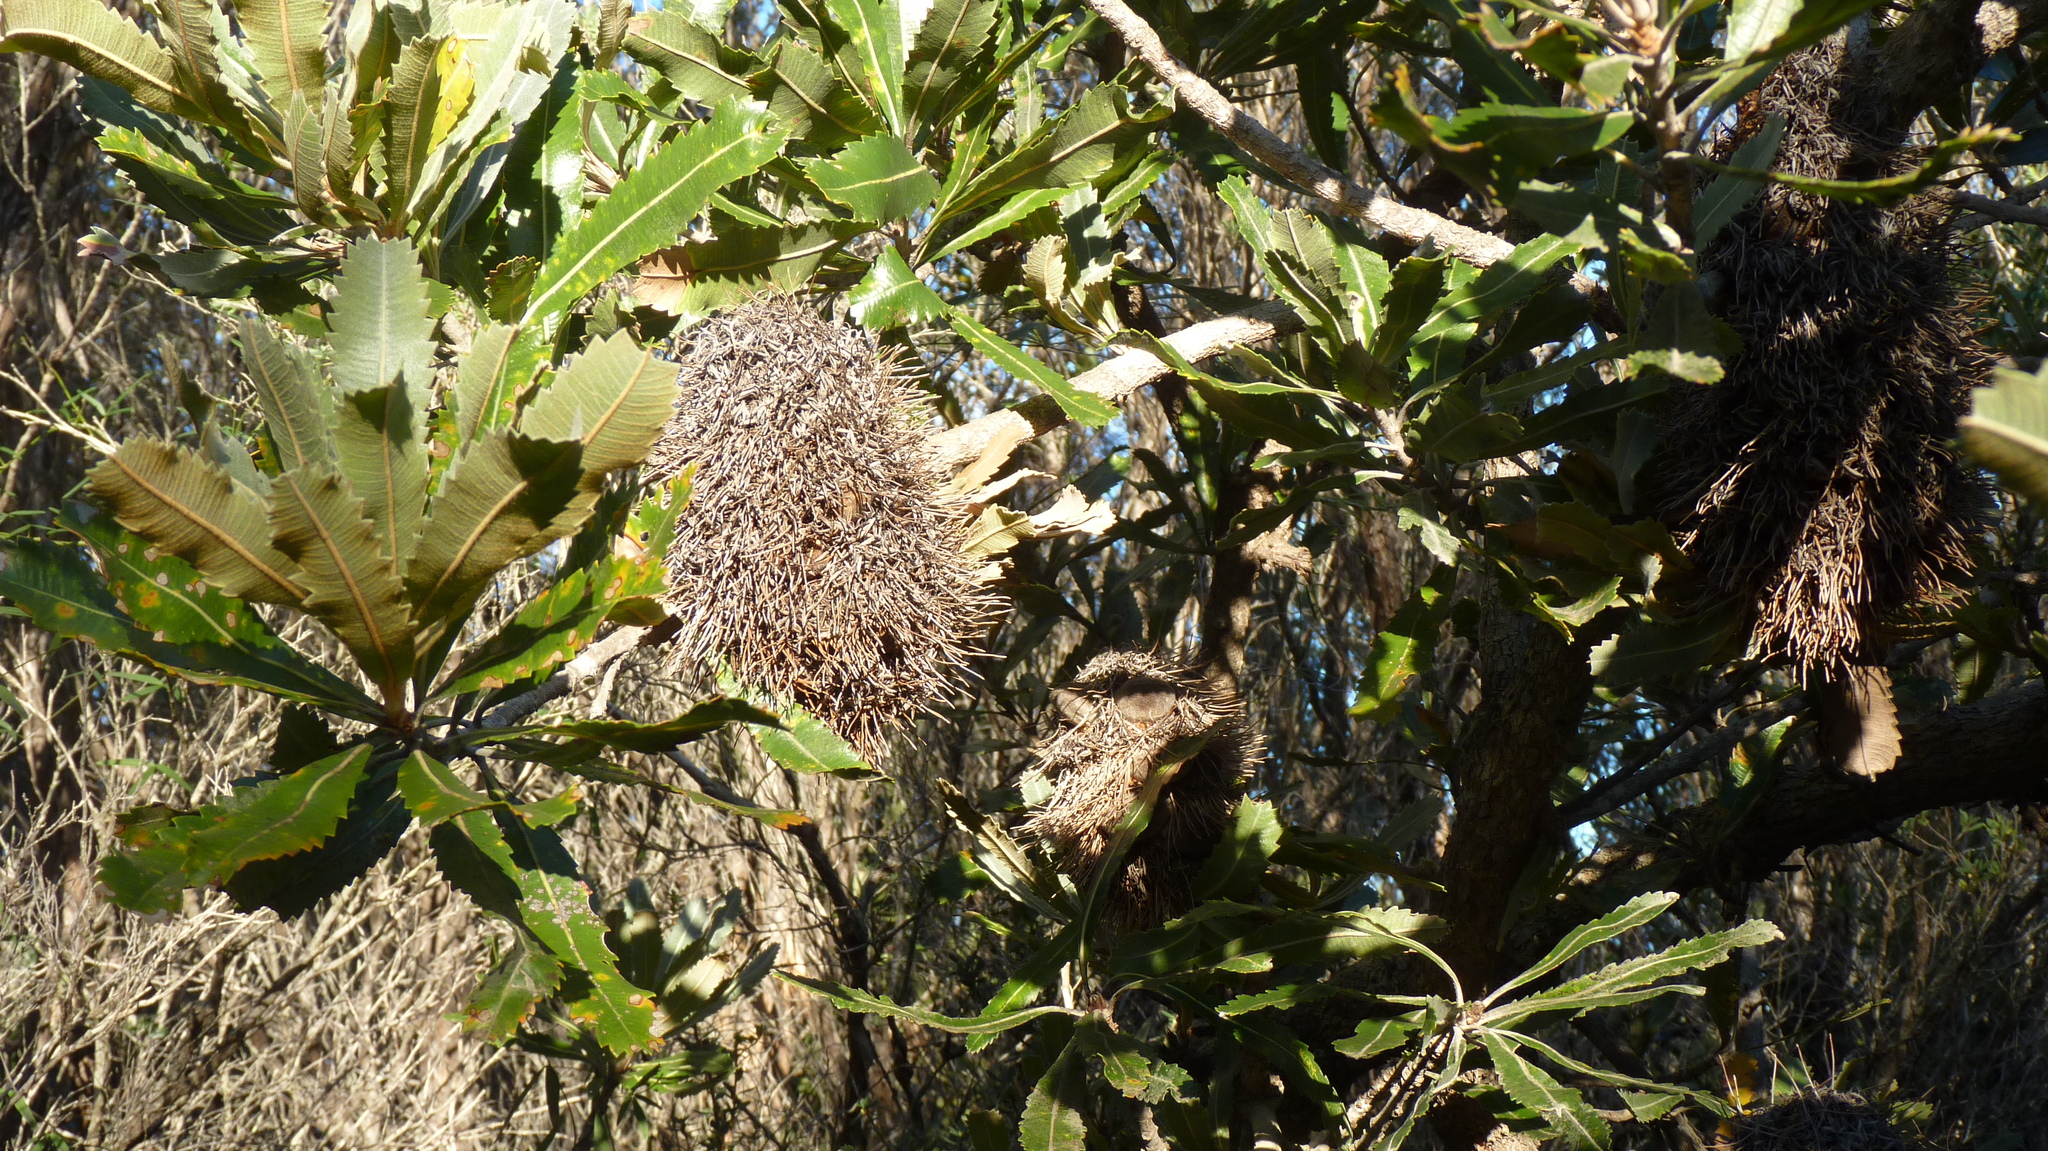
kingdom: Plantae
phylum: Tracheophyta
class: Magnoliopsida
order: Proteales
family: Proteaceae
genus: Banksia
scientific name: Banksia serrata
